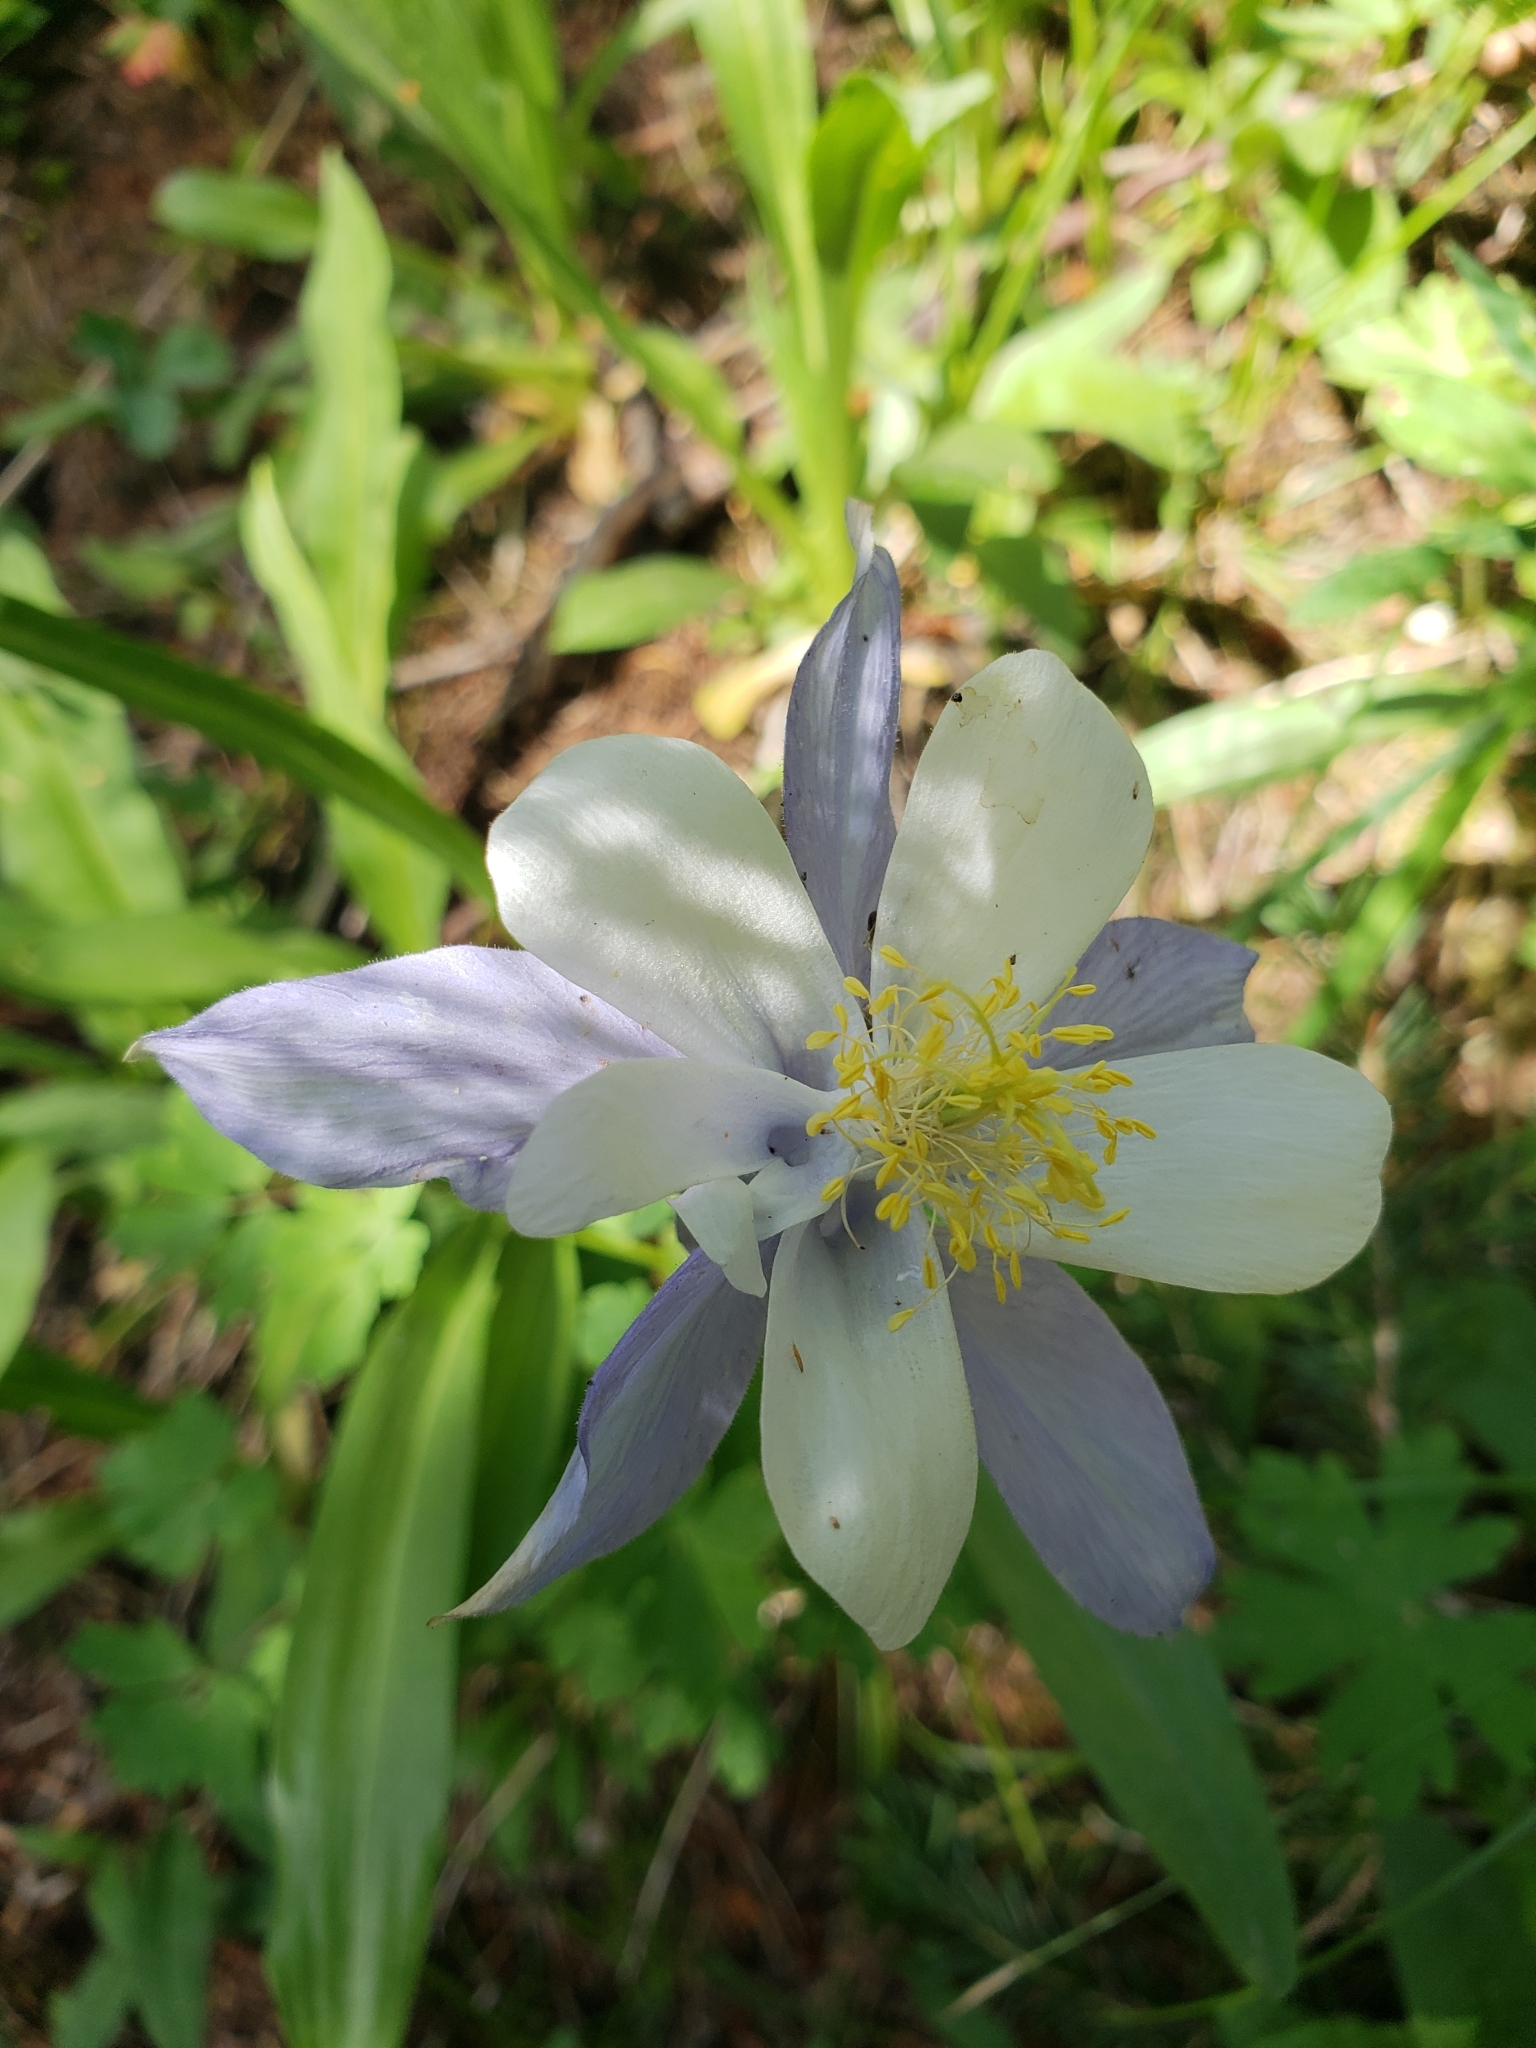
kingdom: Plantae
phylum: Tracheophyta
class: Magnoliopsida
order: Ranunculales
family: Ranunculaceae
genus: Aquilegia
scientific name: Aquilegia coerulea
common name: Rocky mountain columbine
